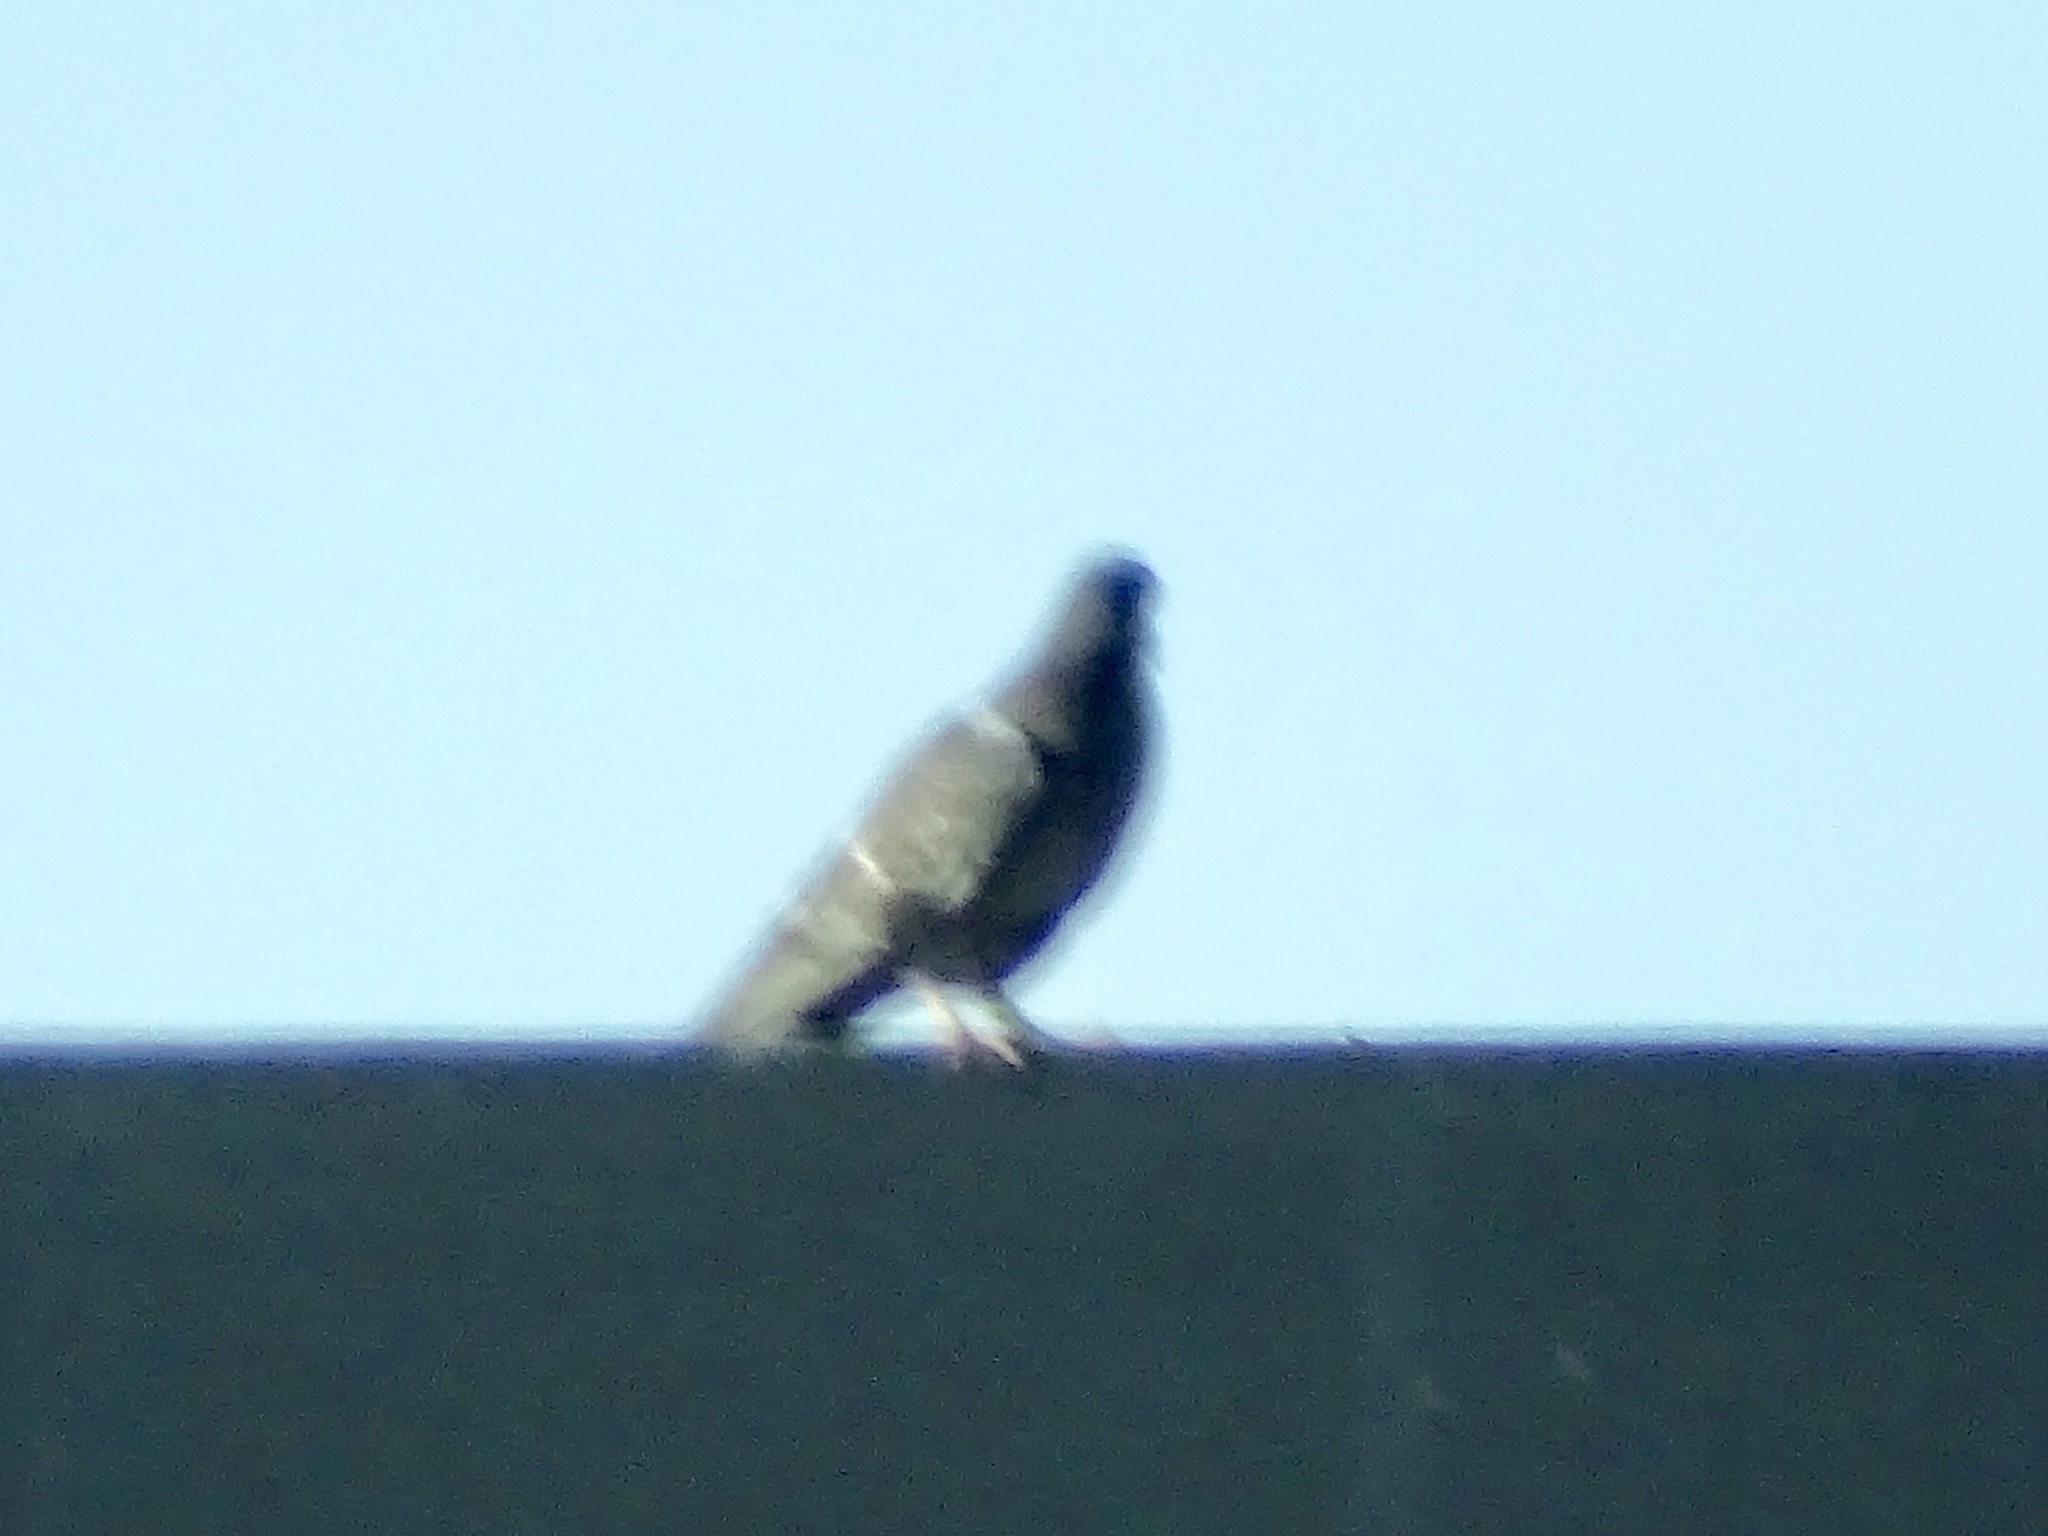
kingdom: Animalia
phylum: Chordata
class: Aves
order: Columbiformes
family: Columbidae
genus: Columba
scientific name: Columba livia
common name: Rock pigeon
